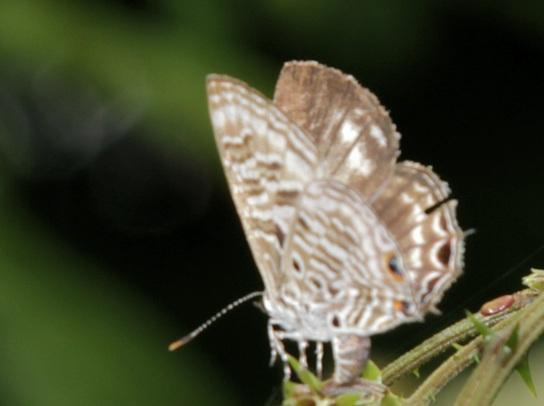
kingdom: Animalia
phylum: Arthropoda
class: Insecta
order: Lepidoptera
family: Lycaenidae
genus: Anthene
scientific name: Anthene larydas
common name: Forest hairtail
